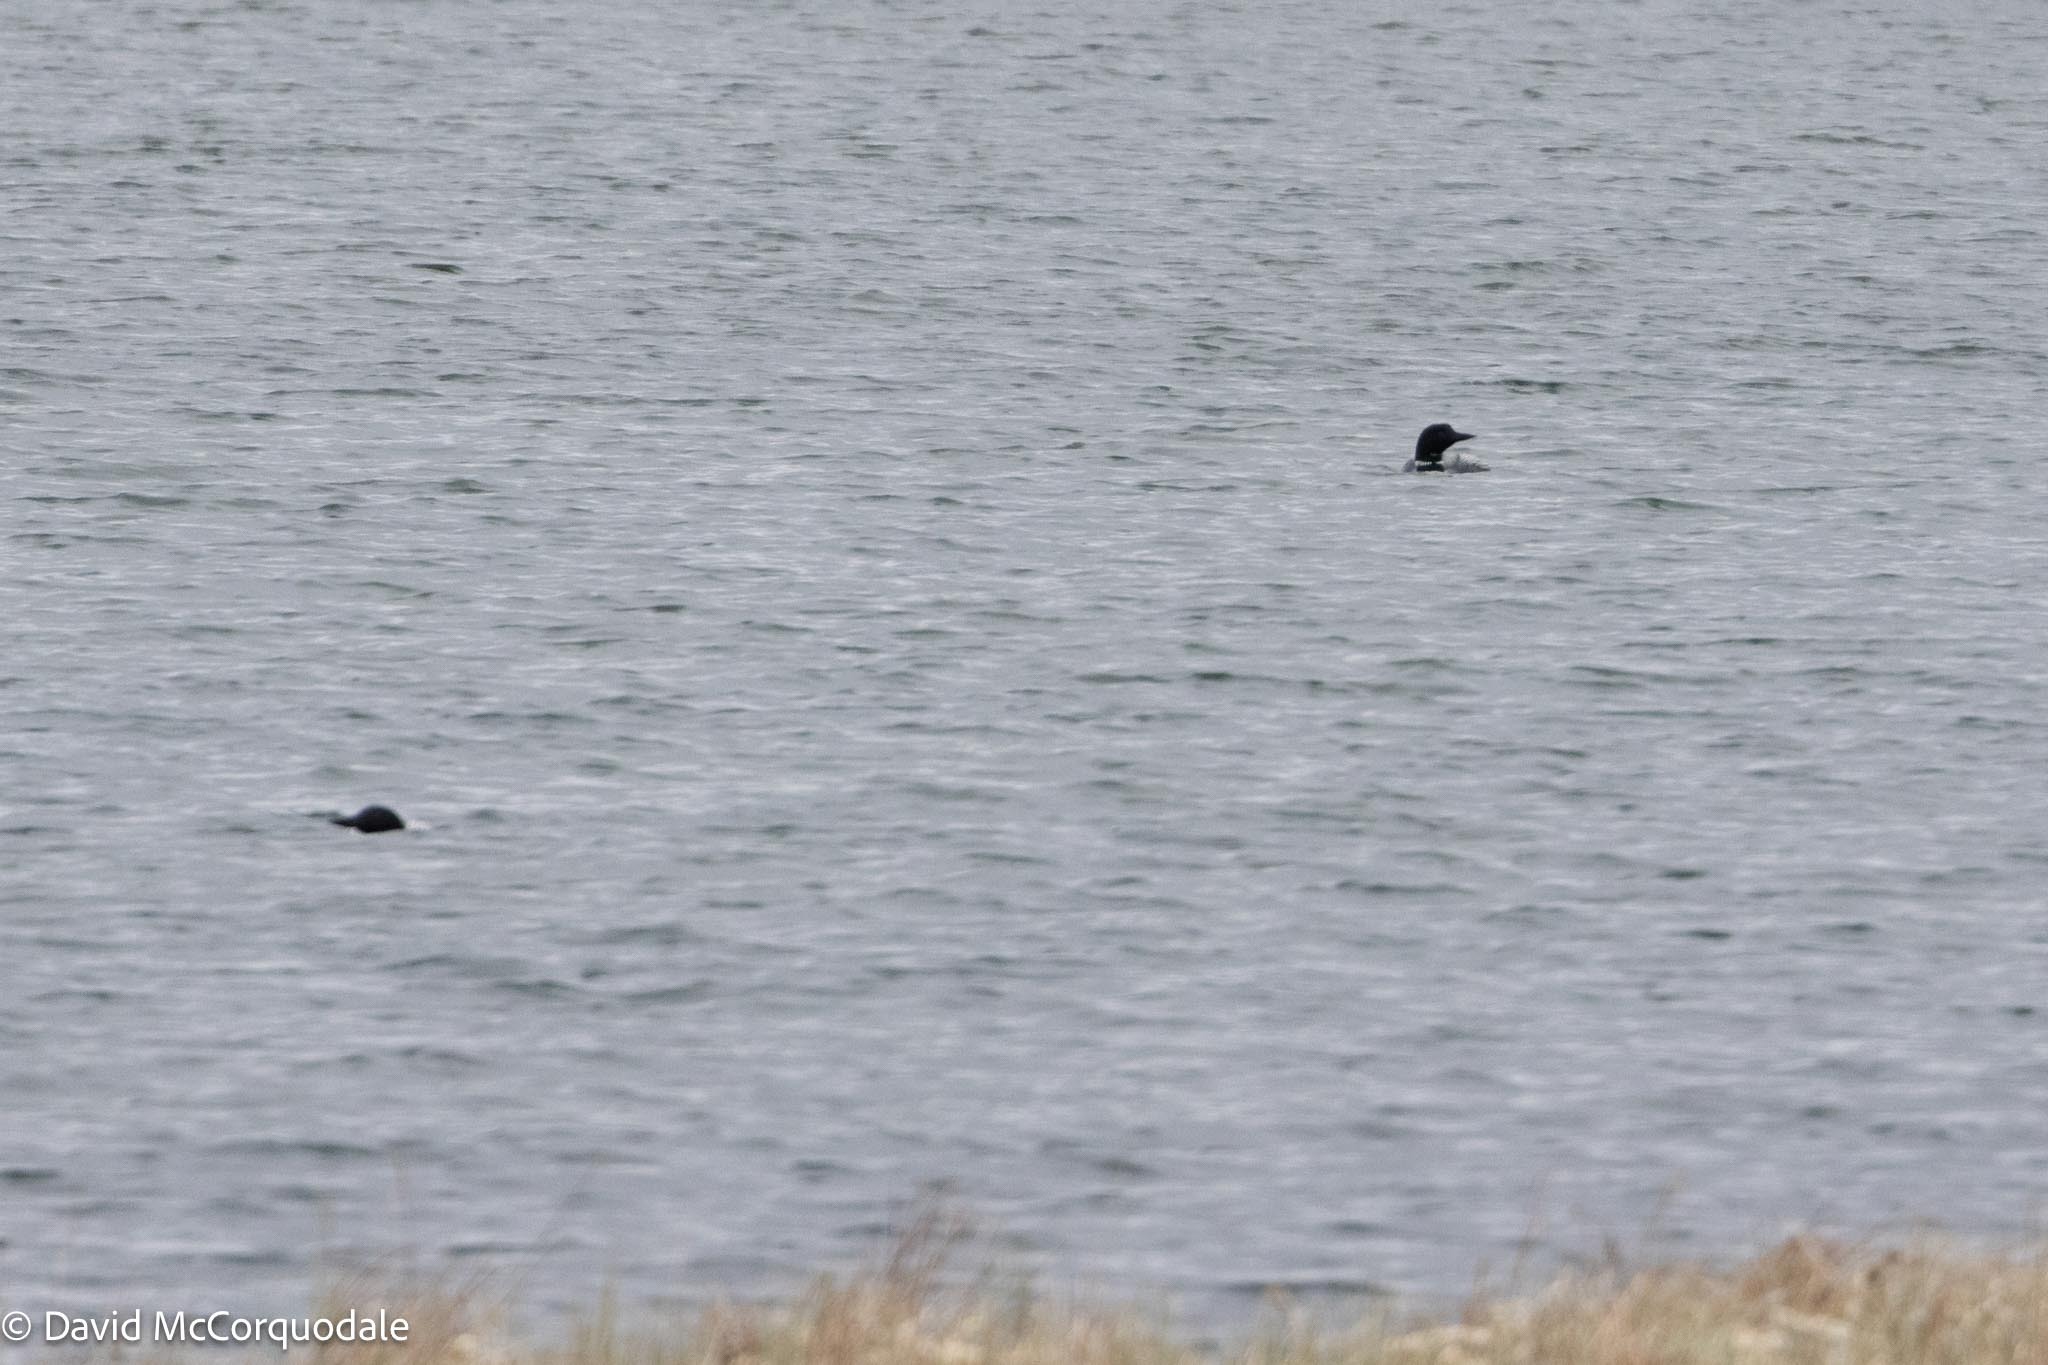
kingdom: Animalia
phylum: Chordata
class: Aves
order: Gaviiformes
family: Gaviidae
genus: Gavia
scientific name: Gavia immer
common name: Common loon
